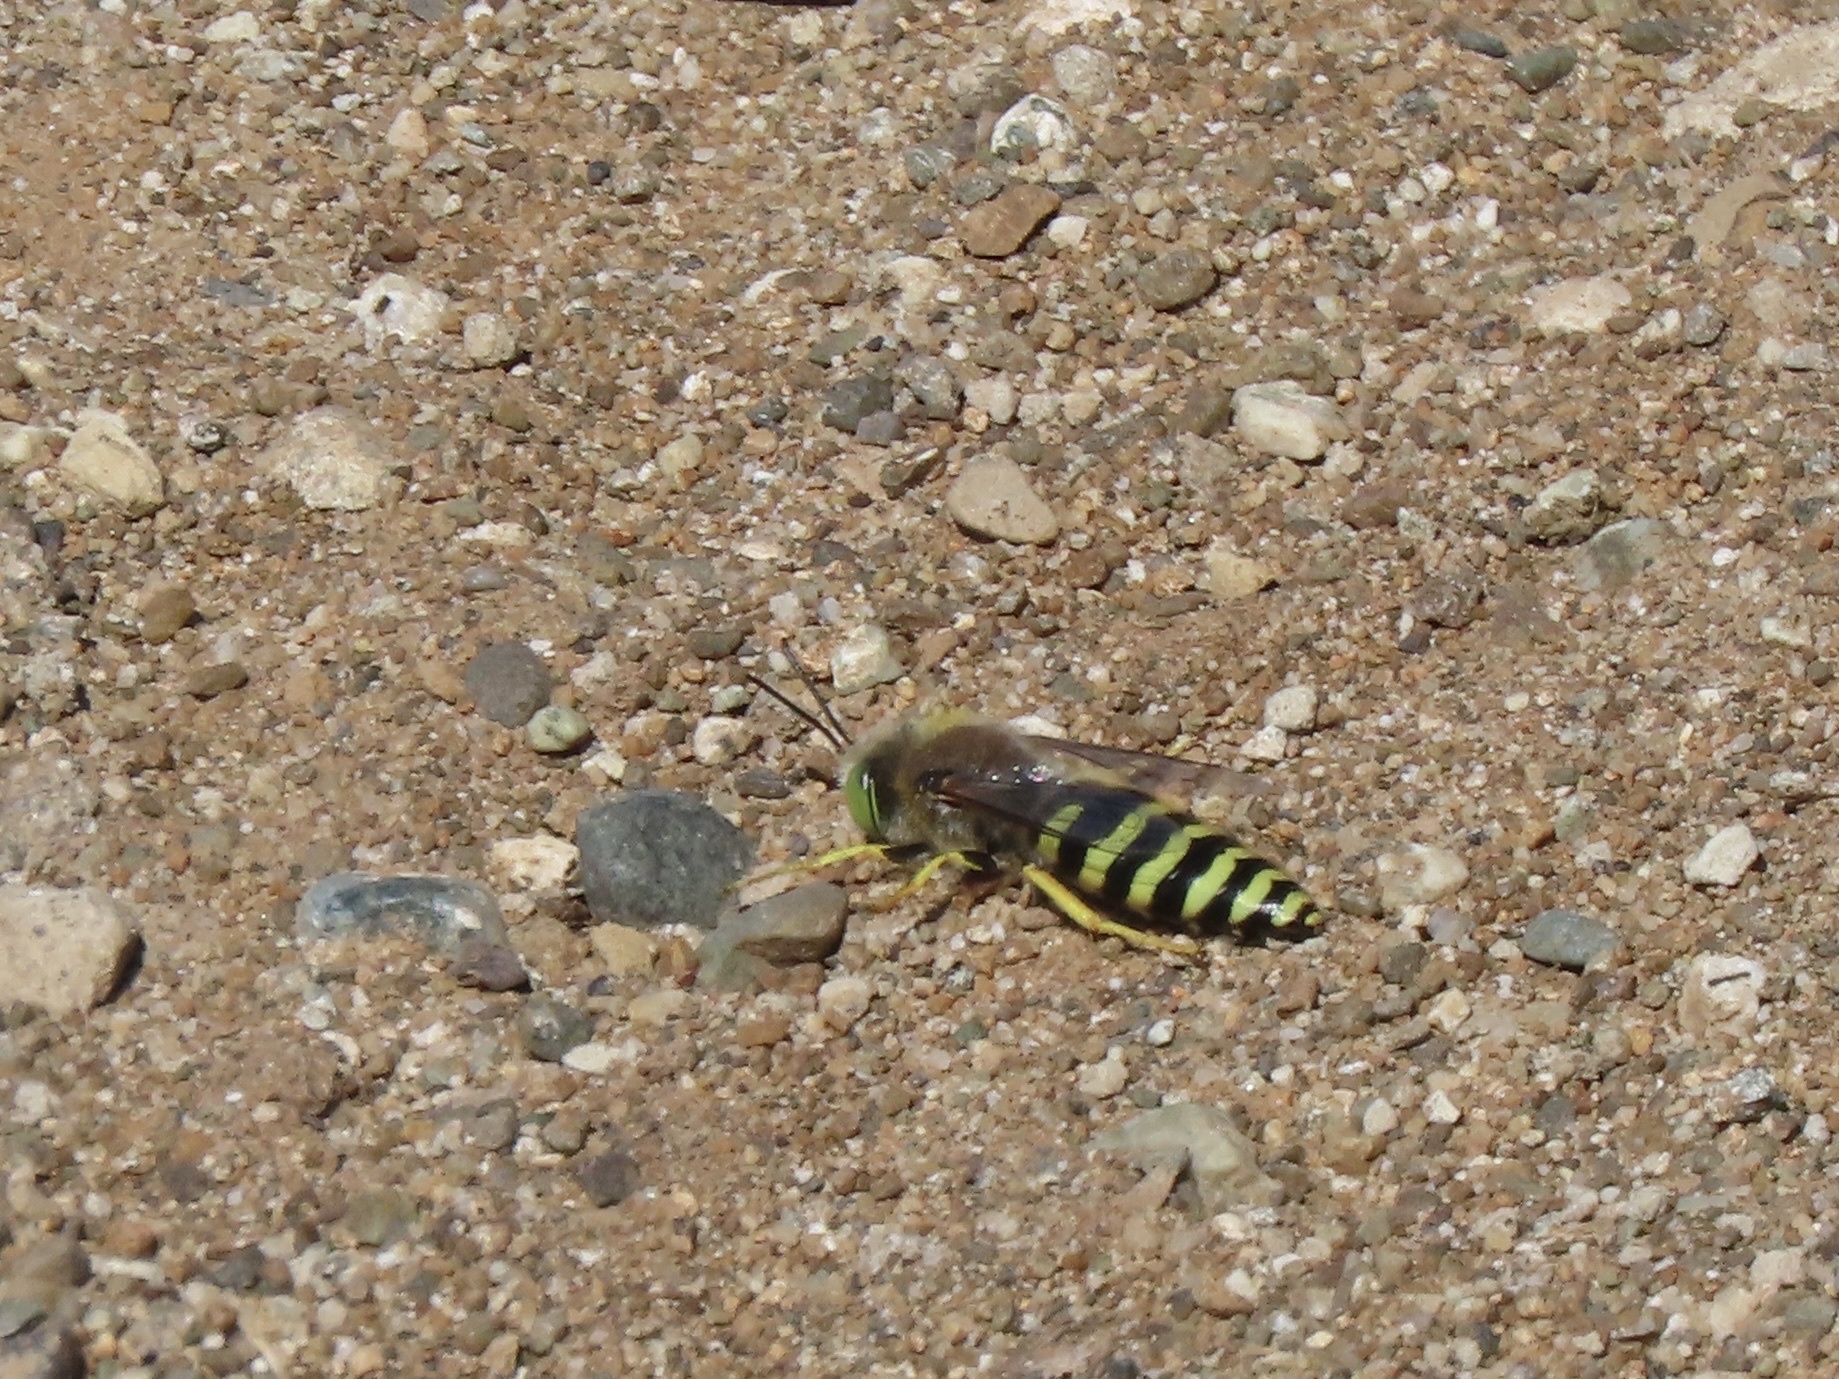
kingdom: Animalia
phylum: Arthropoda
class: Insecta
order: Hymenoptera
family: Crabronidae
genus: Bembix
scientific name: Bembix americana
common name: American sand wasp
